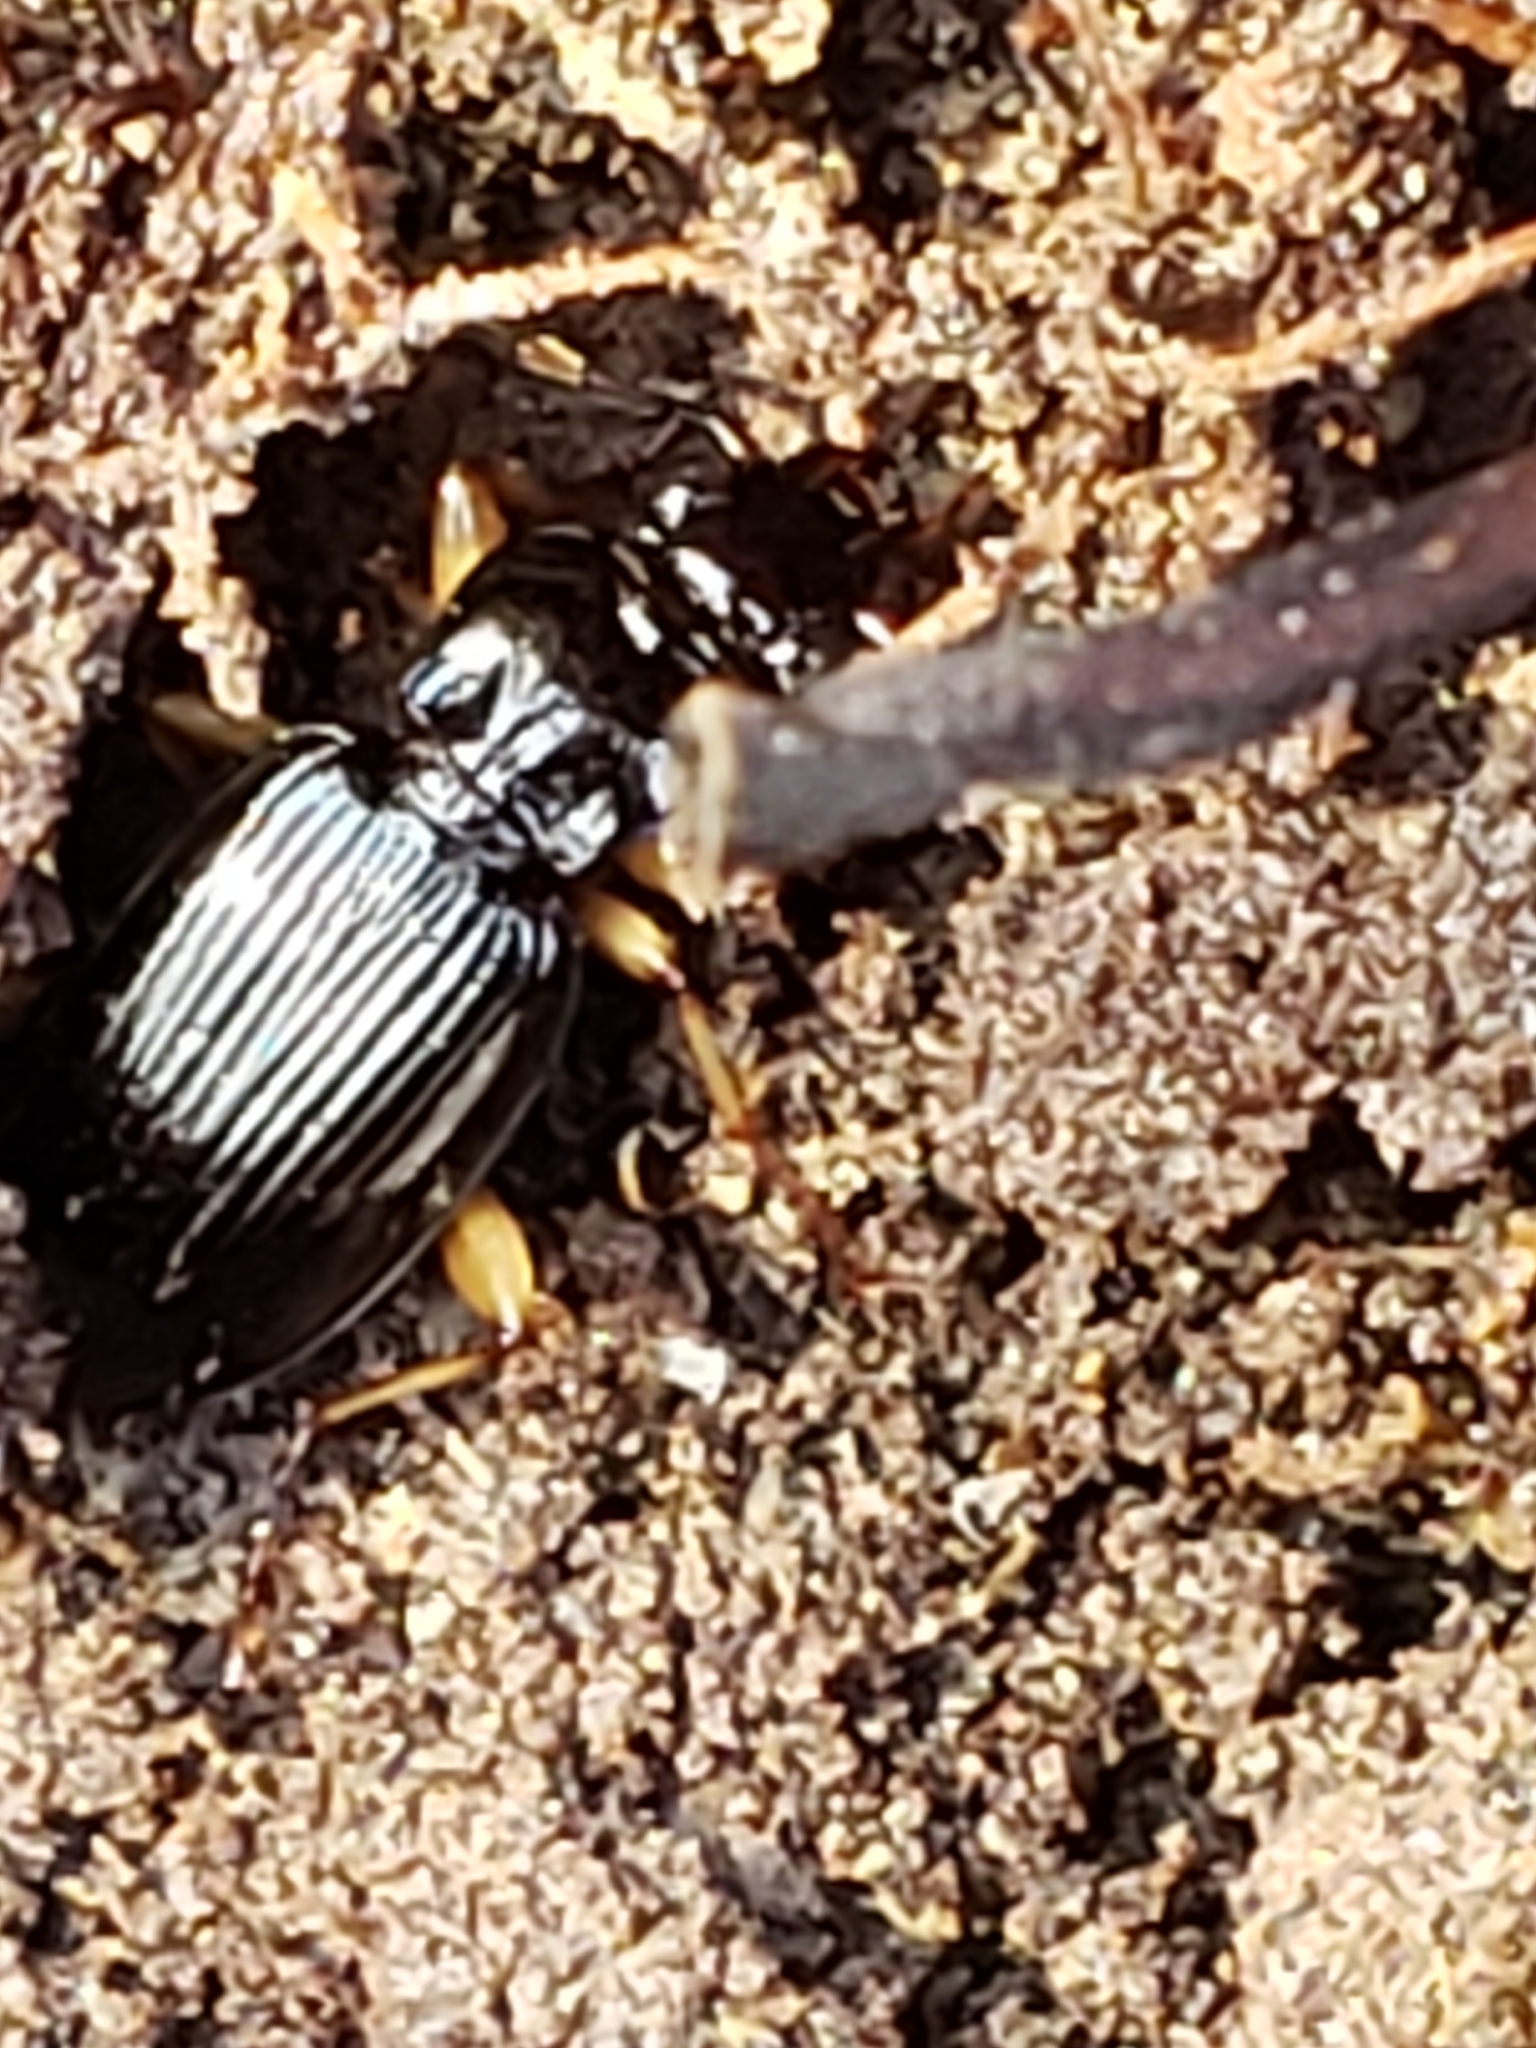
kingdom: Animalia
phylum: Arthropoda
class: Insecta
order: Coleoptera
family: Carabidae
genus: Patrobus
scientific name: Patrobus longicornis
